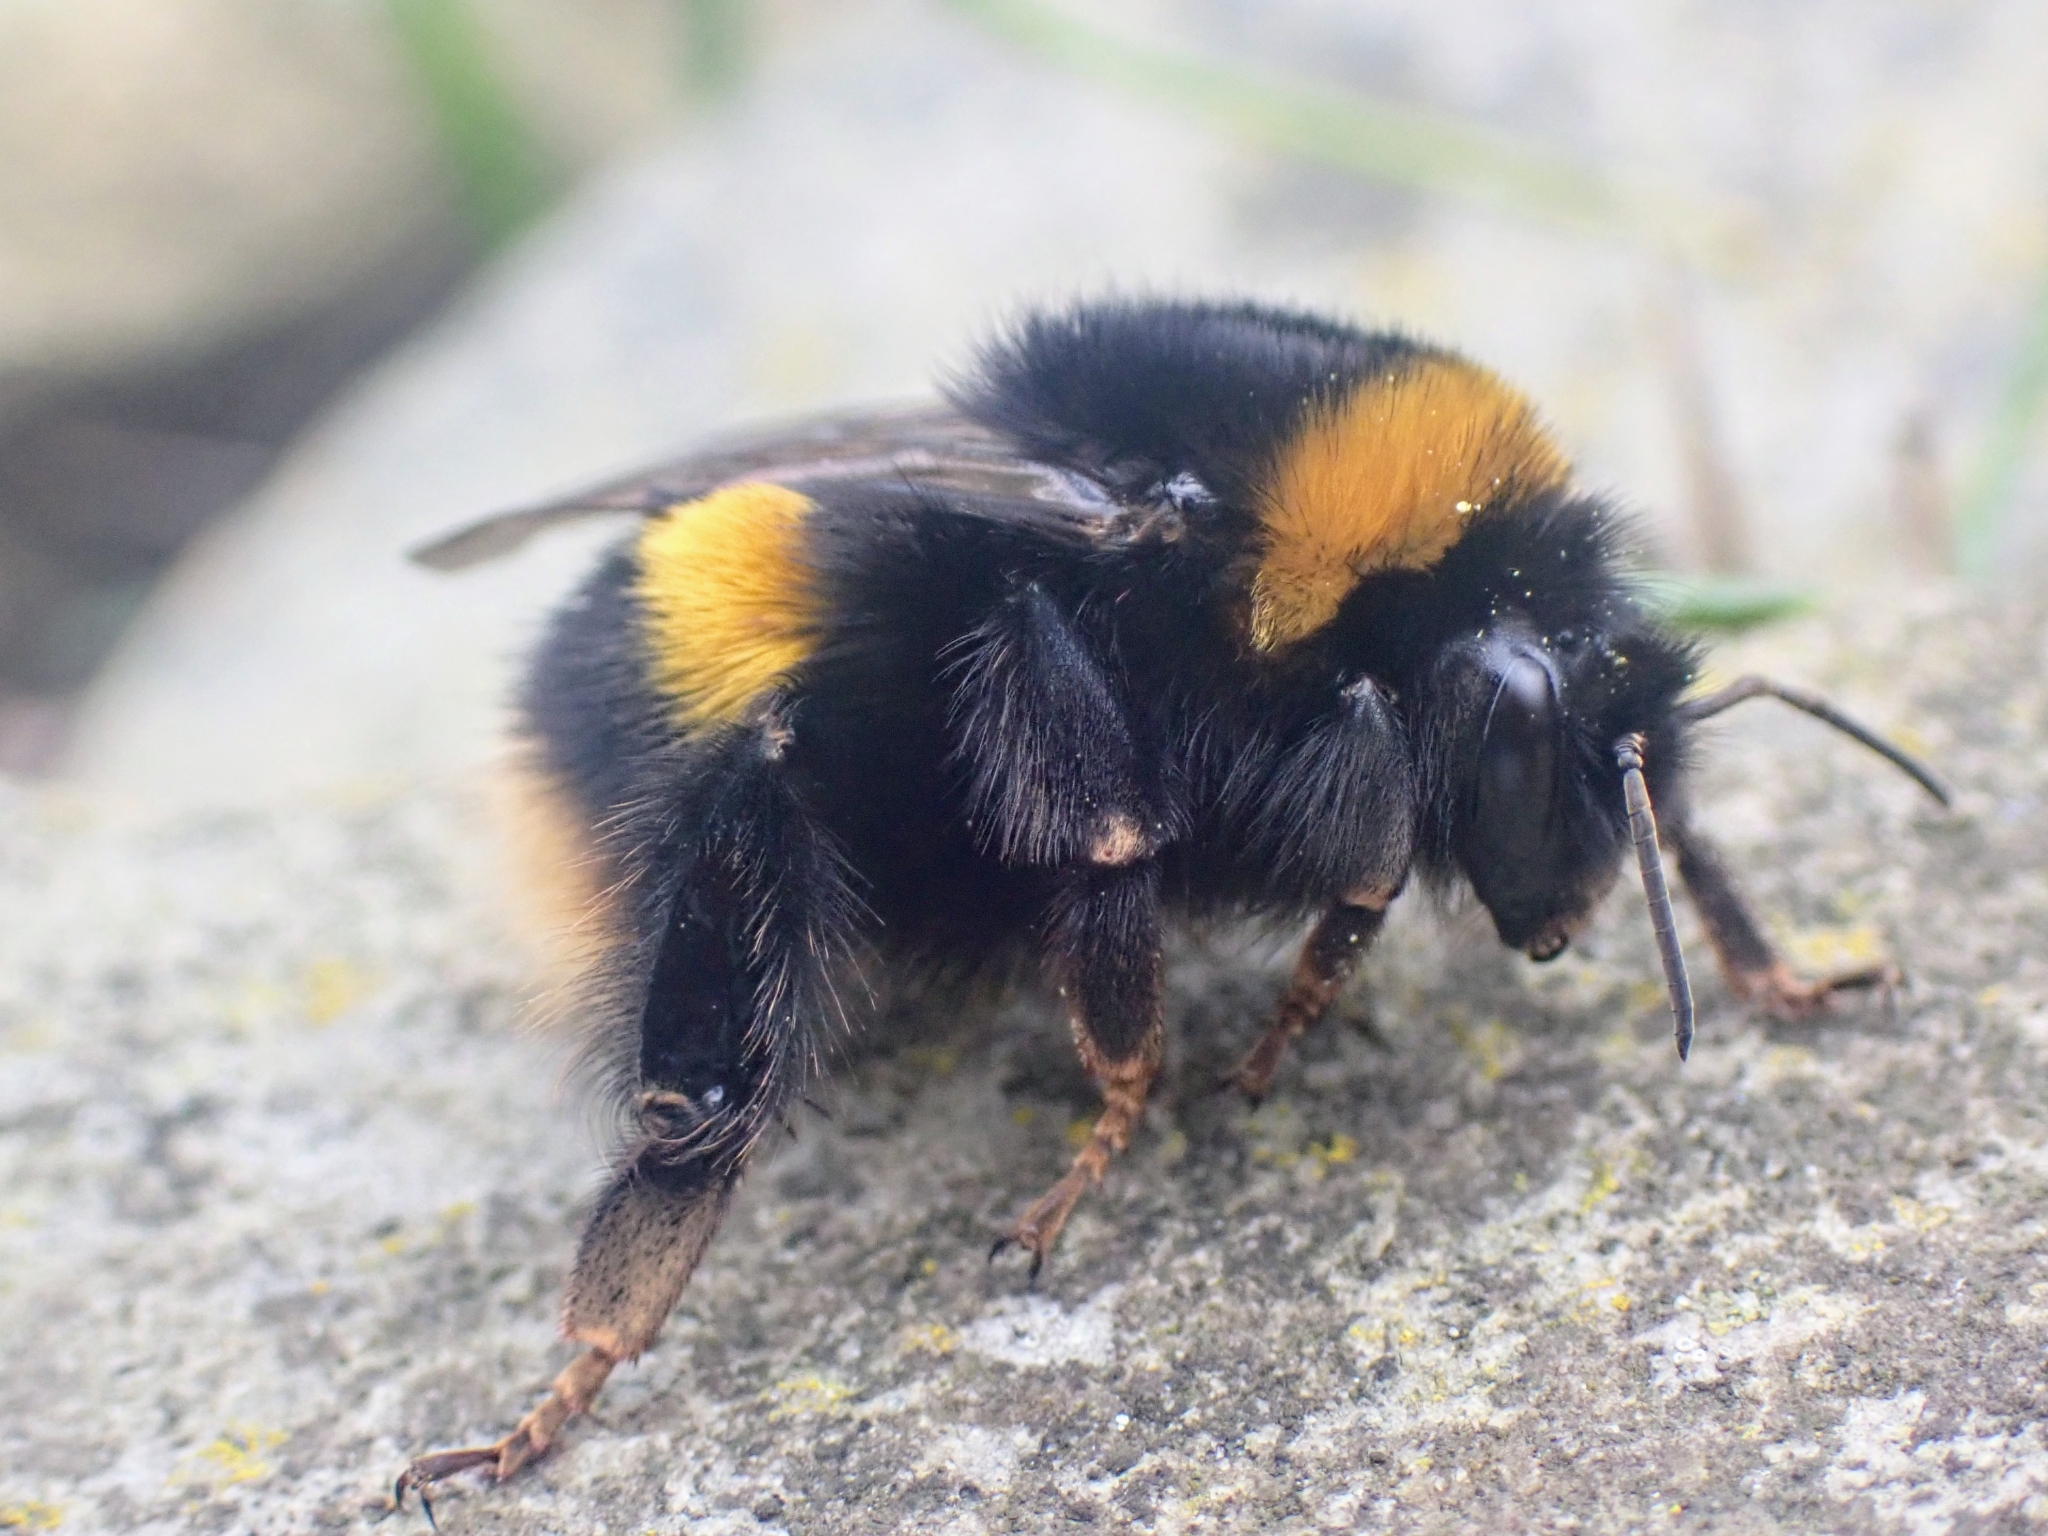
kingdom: Animalia
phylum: Arthropoda
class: Insecta
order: Hymenoptera
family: Apidae
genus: Bombus
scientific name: Bombus terrestris
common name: Buff-tailed bumblebee
